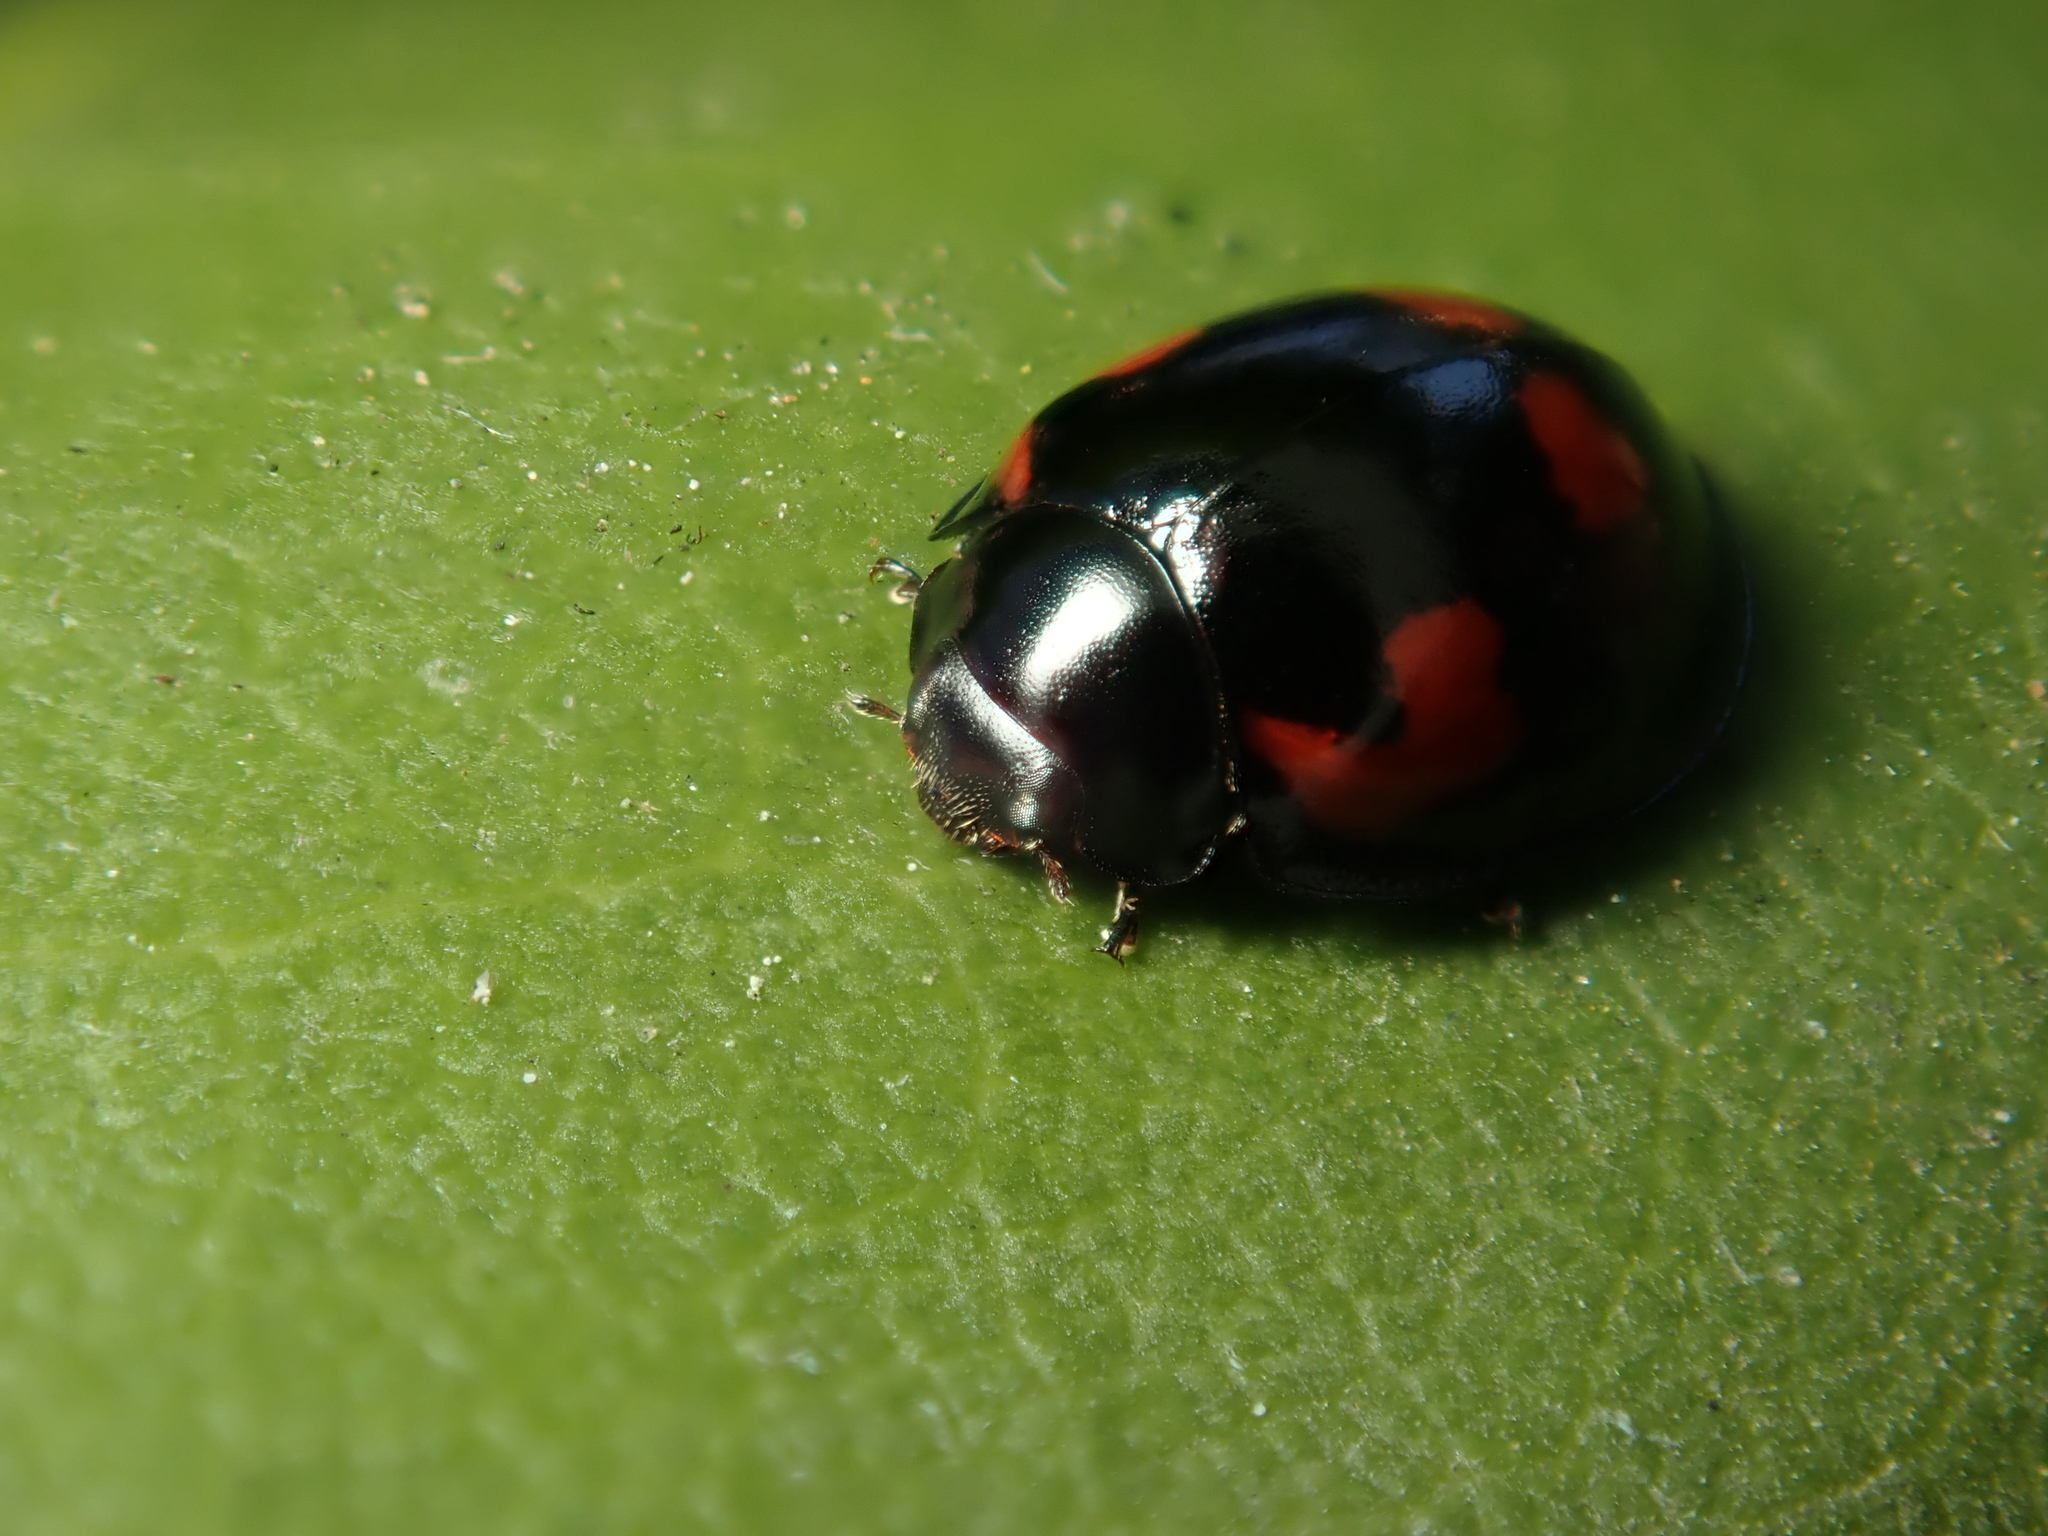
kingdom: Animalia
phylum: Arthropoda
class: Insecta
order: Coleoptera
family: Coccinellidae
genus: Brumus
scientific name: Brumus quadripustulatus
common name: Ladybird beetle
